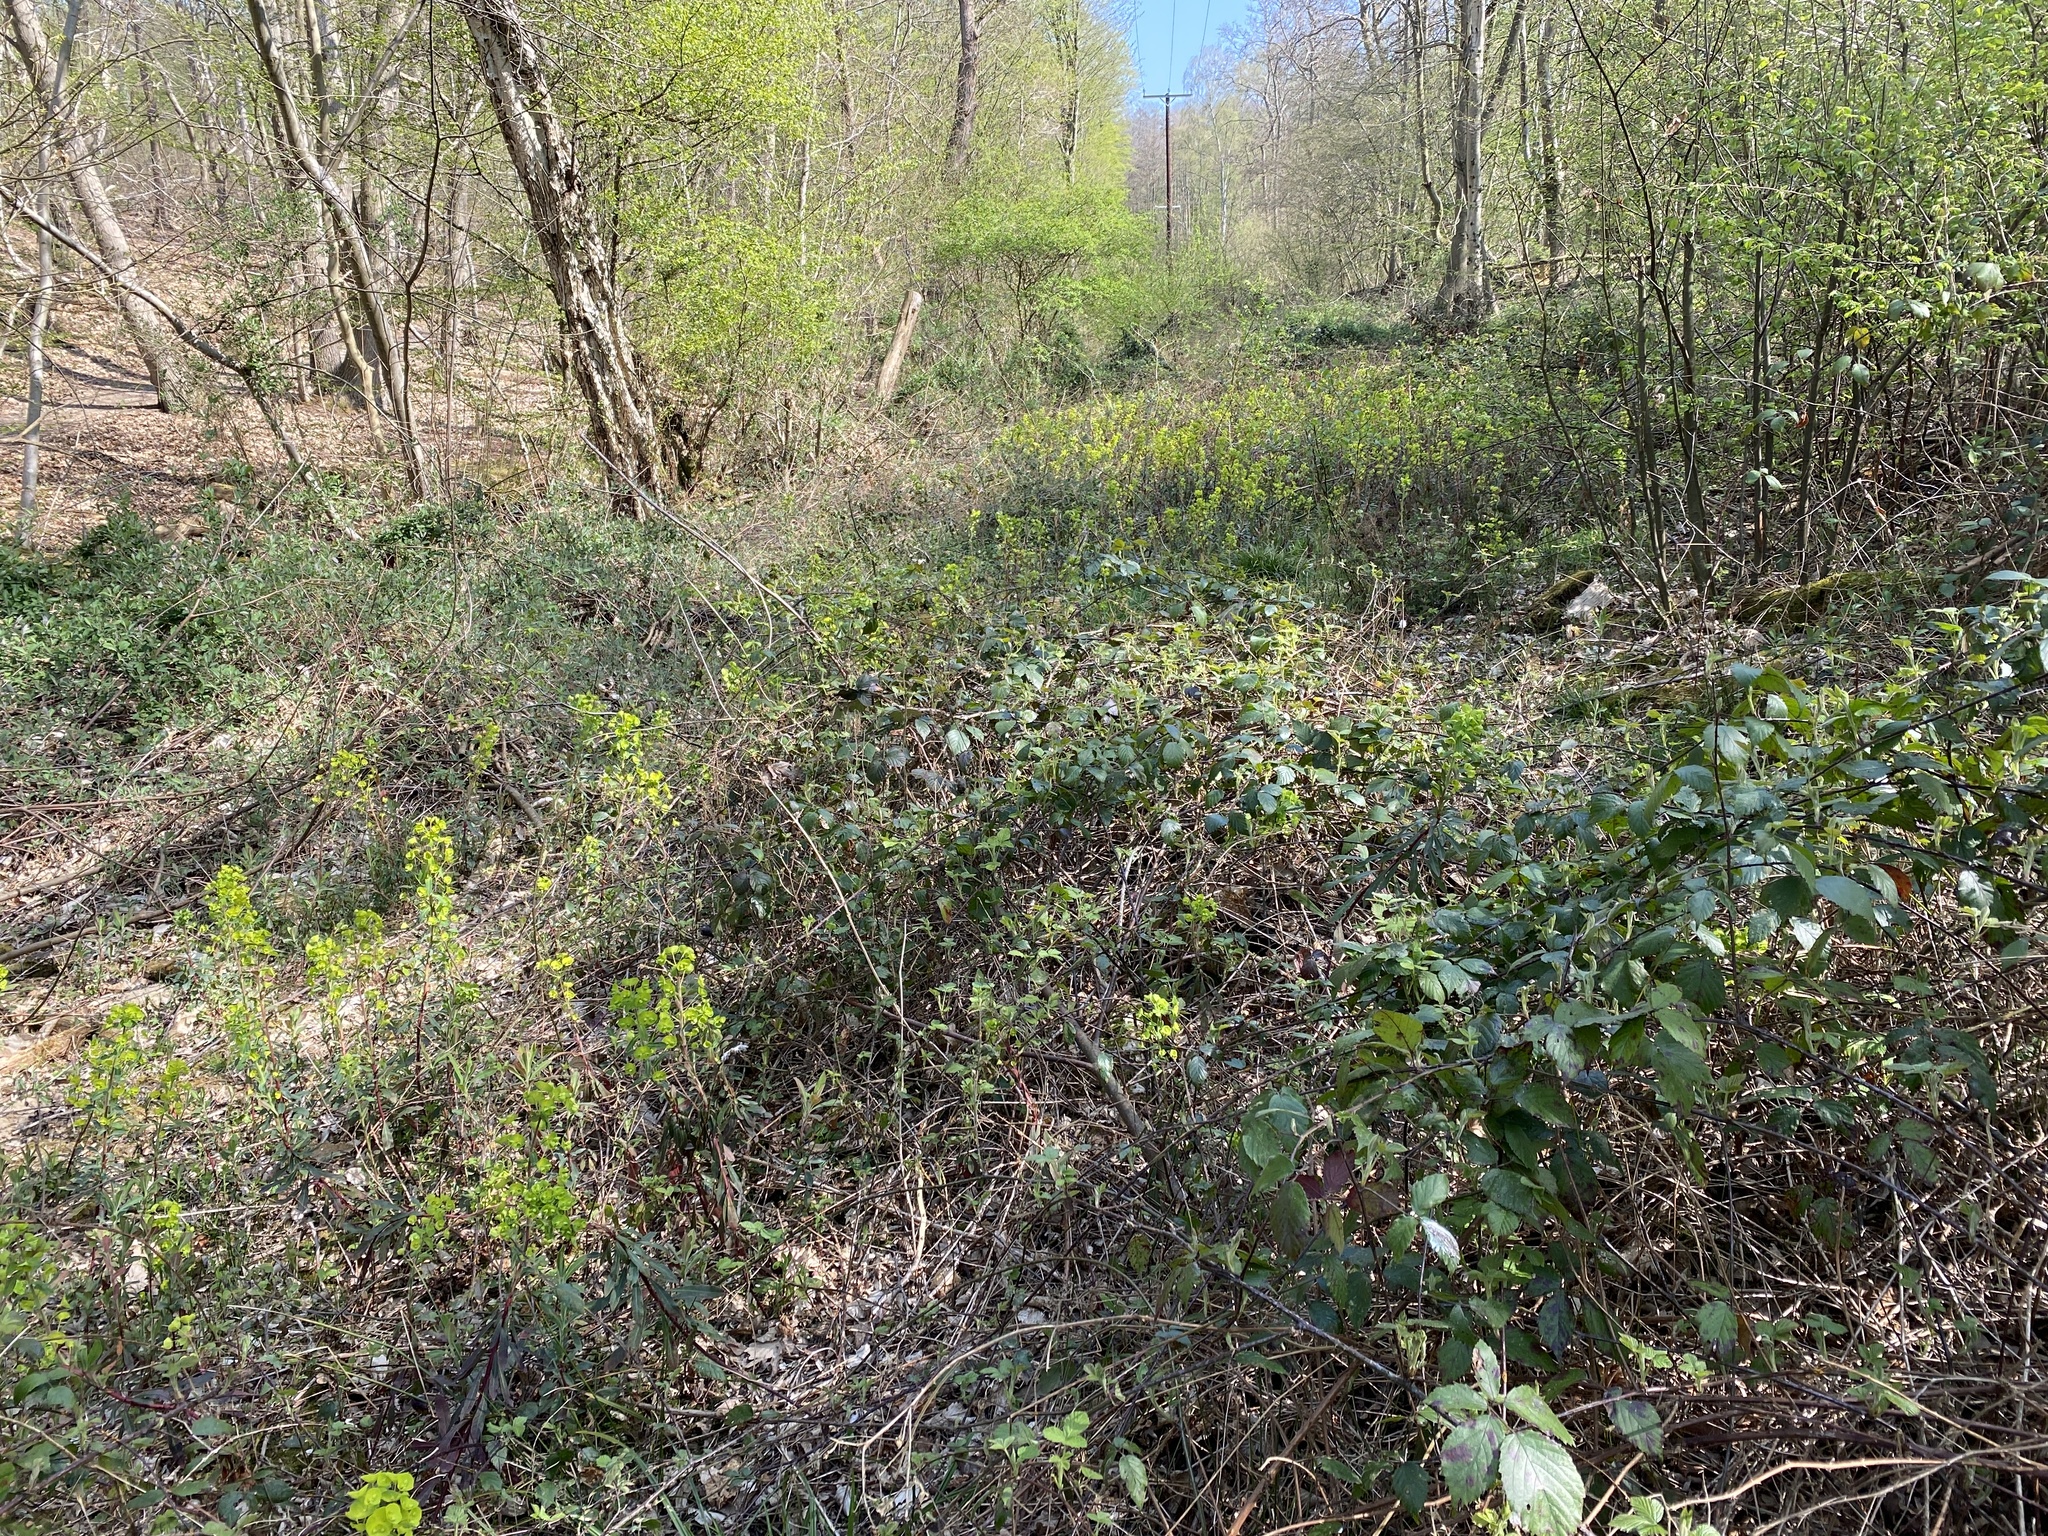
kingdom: Plantae
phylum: Tracheophyta
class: Magnoliopsida
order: Malpighiales
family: Euphorbiaceae
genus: Euphorbia
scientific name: Euphorbia amygdaloides
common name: Wood spurge
